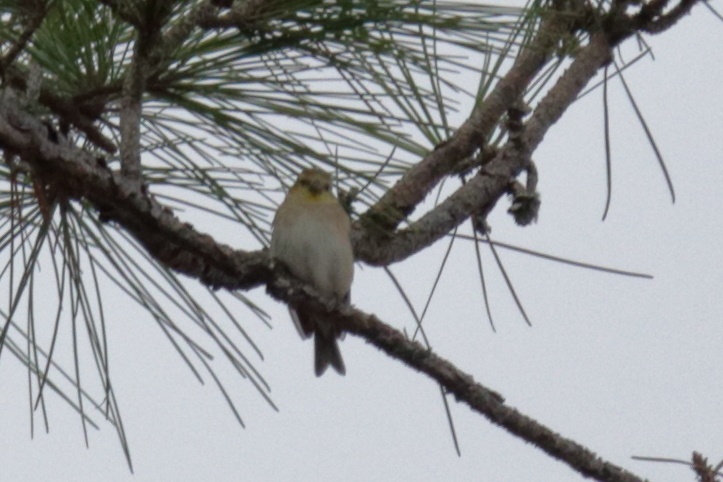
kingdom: Animalia
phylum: Chordata
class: Aves
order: Passeriformes
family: Fringillidae
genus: Spinus
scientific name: Spinus tristis
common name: American goldfinch
